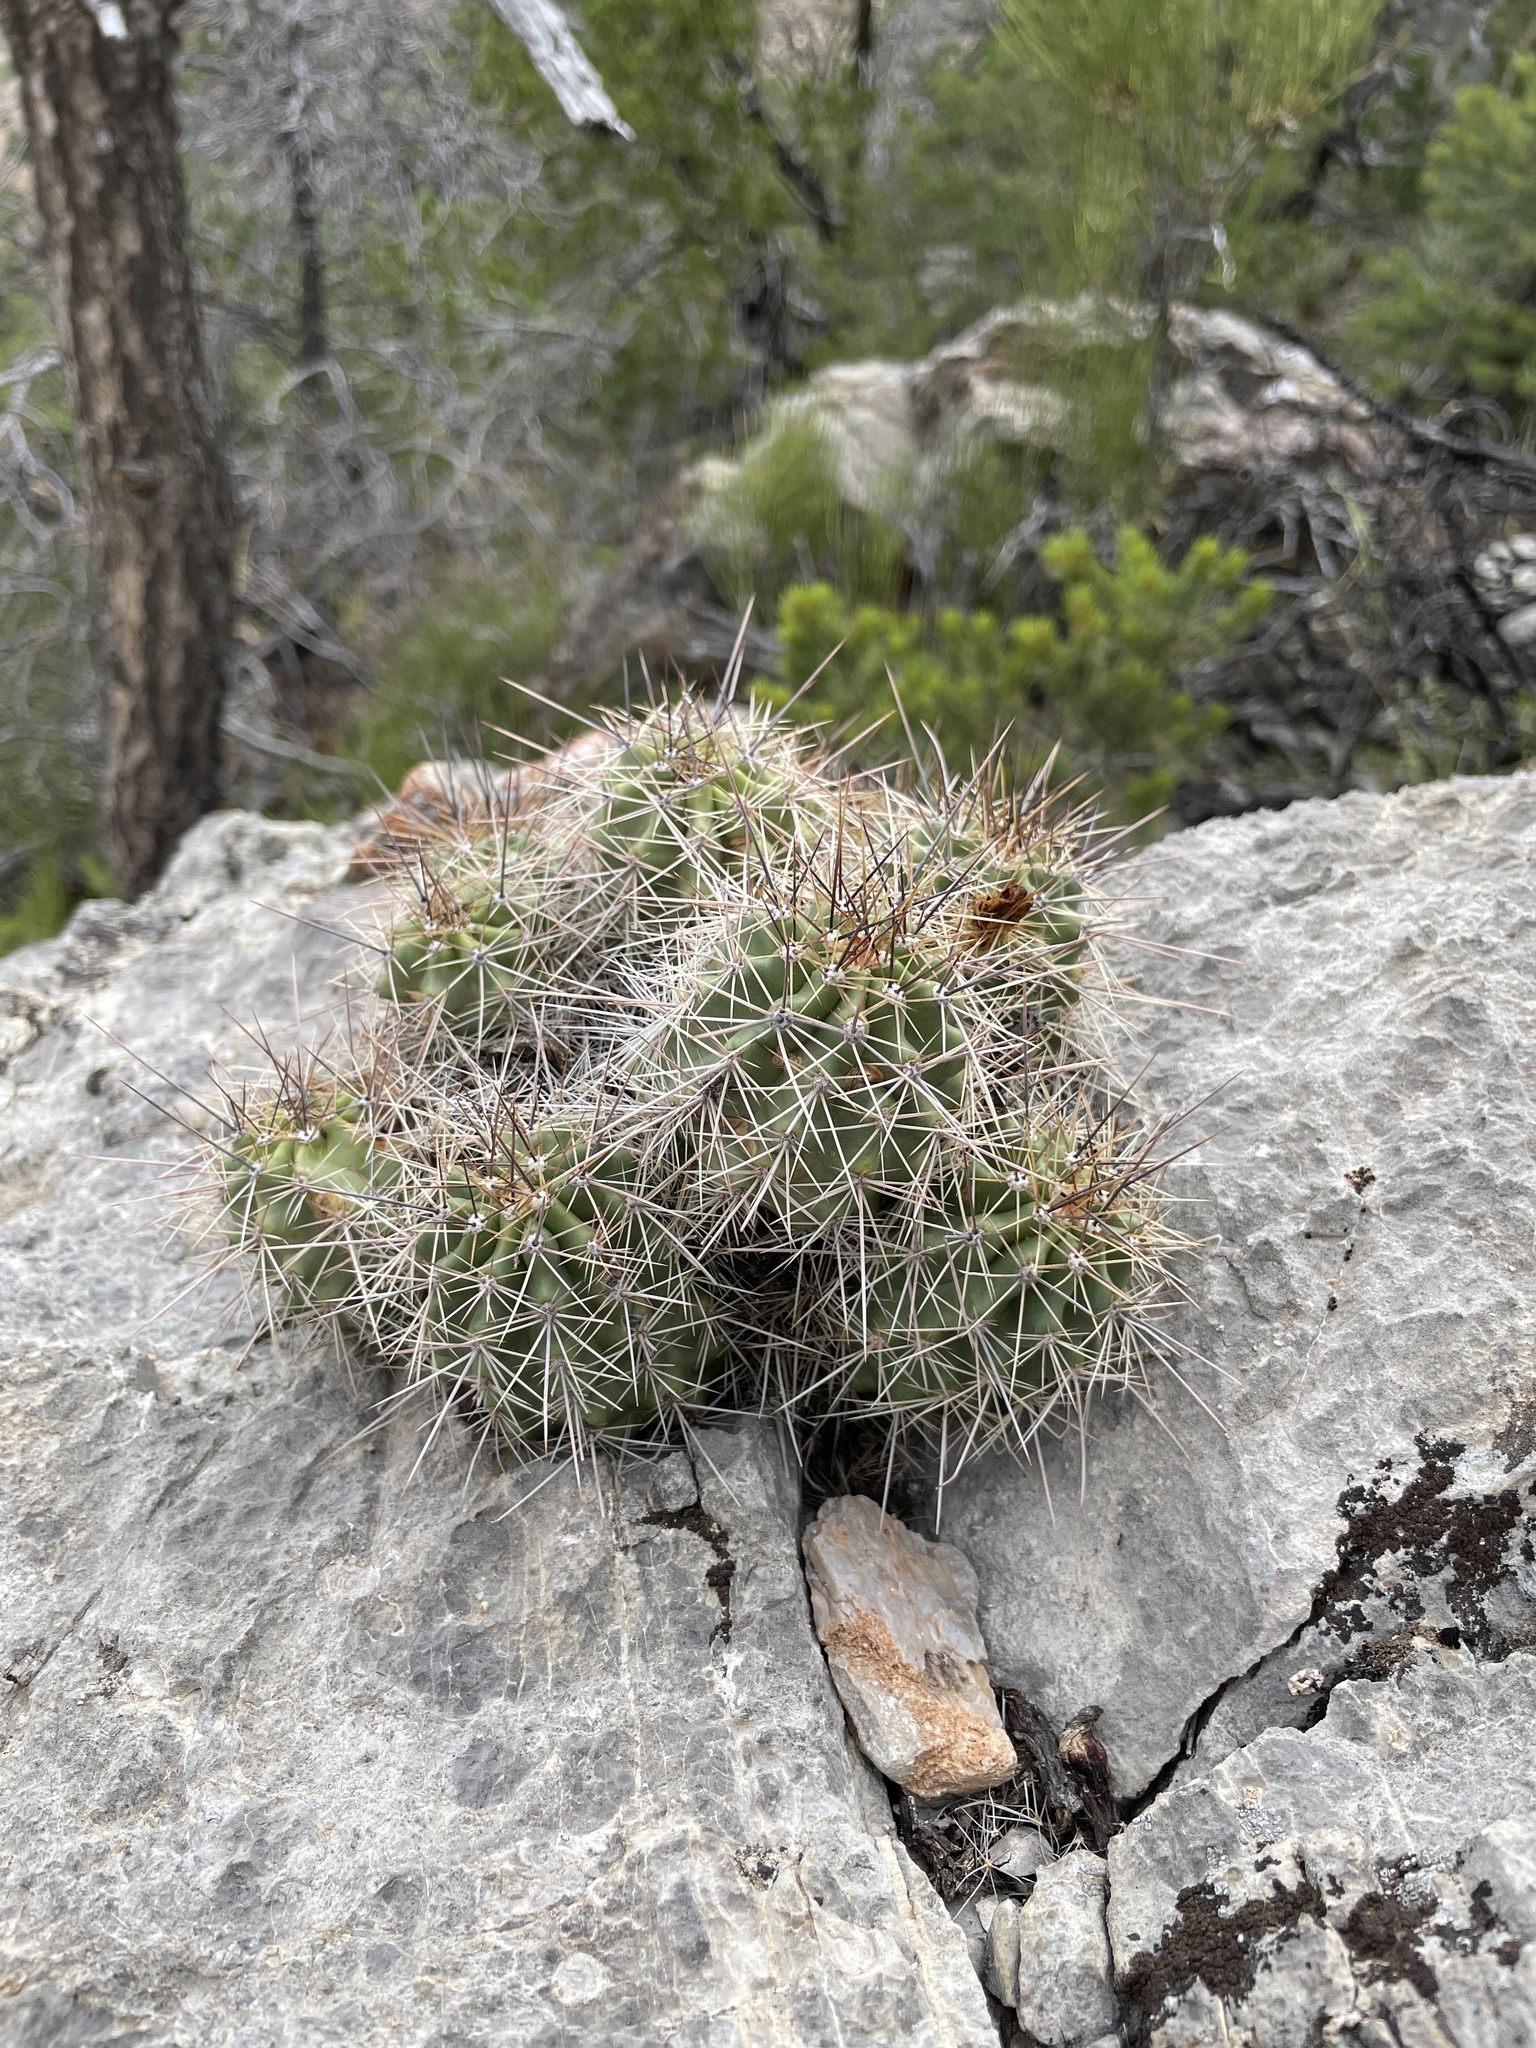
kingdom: Plantae
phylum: Tracheophyta
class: Magnoliopsida
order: Caryophyllales
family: Cactaceae
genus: Echinocereus
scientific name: Echinocereus coccineus
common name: Scarlet hedgehog cactus
